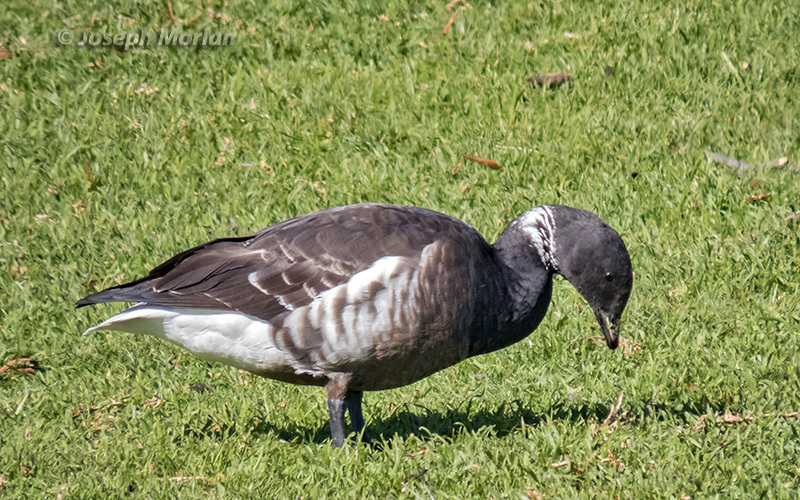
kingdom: Animalia
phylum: Chordata
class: Aves
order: Anseriformes
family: Anatidae
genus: Branta
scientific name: Branta bernicla
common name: Brant goose
